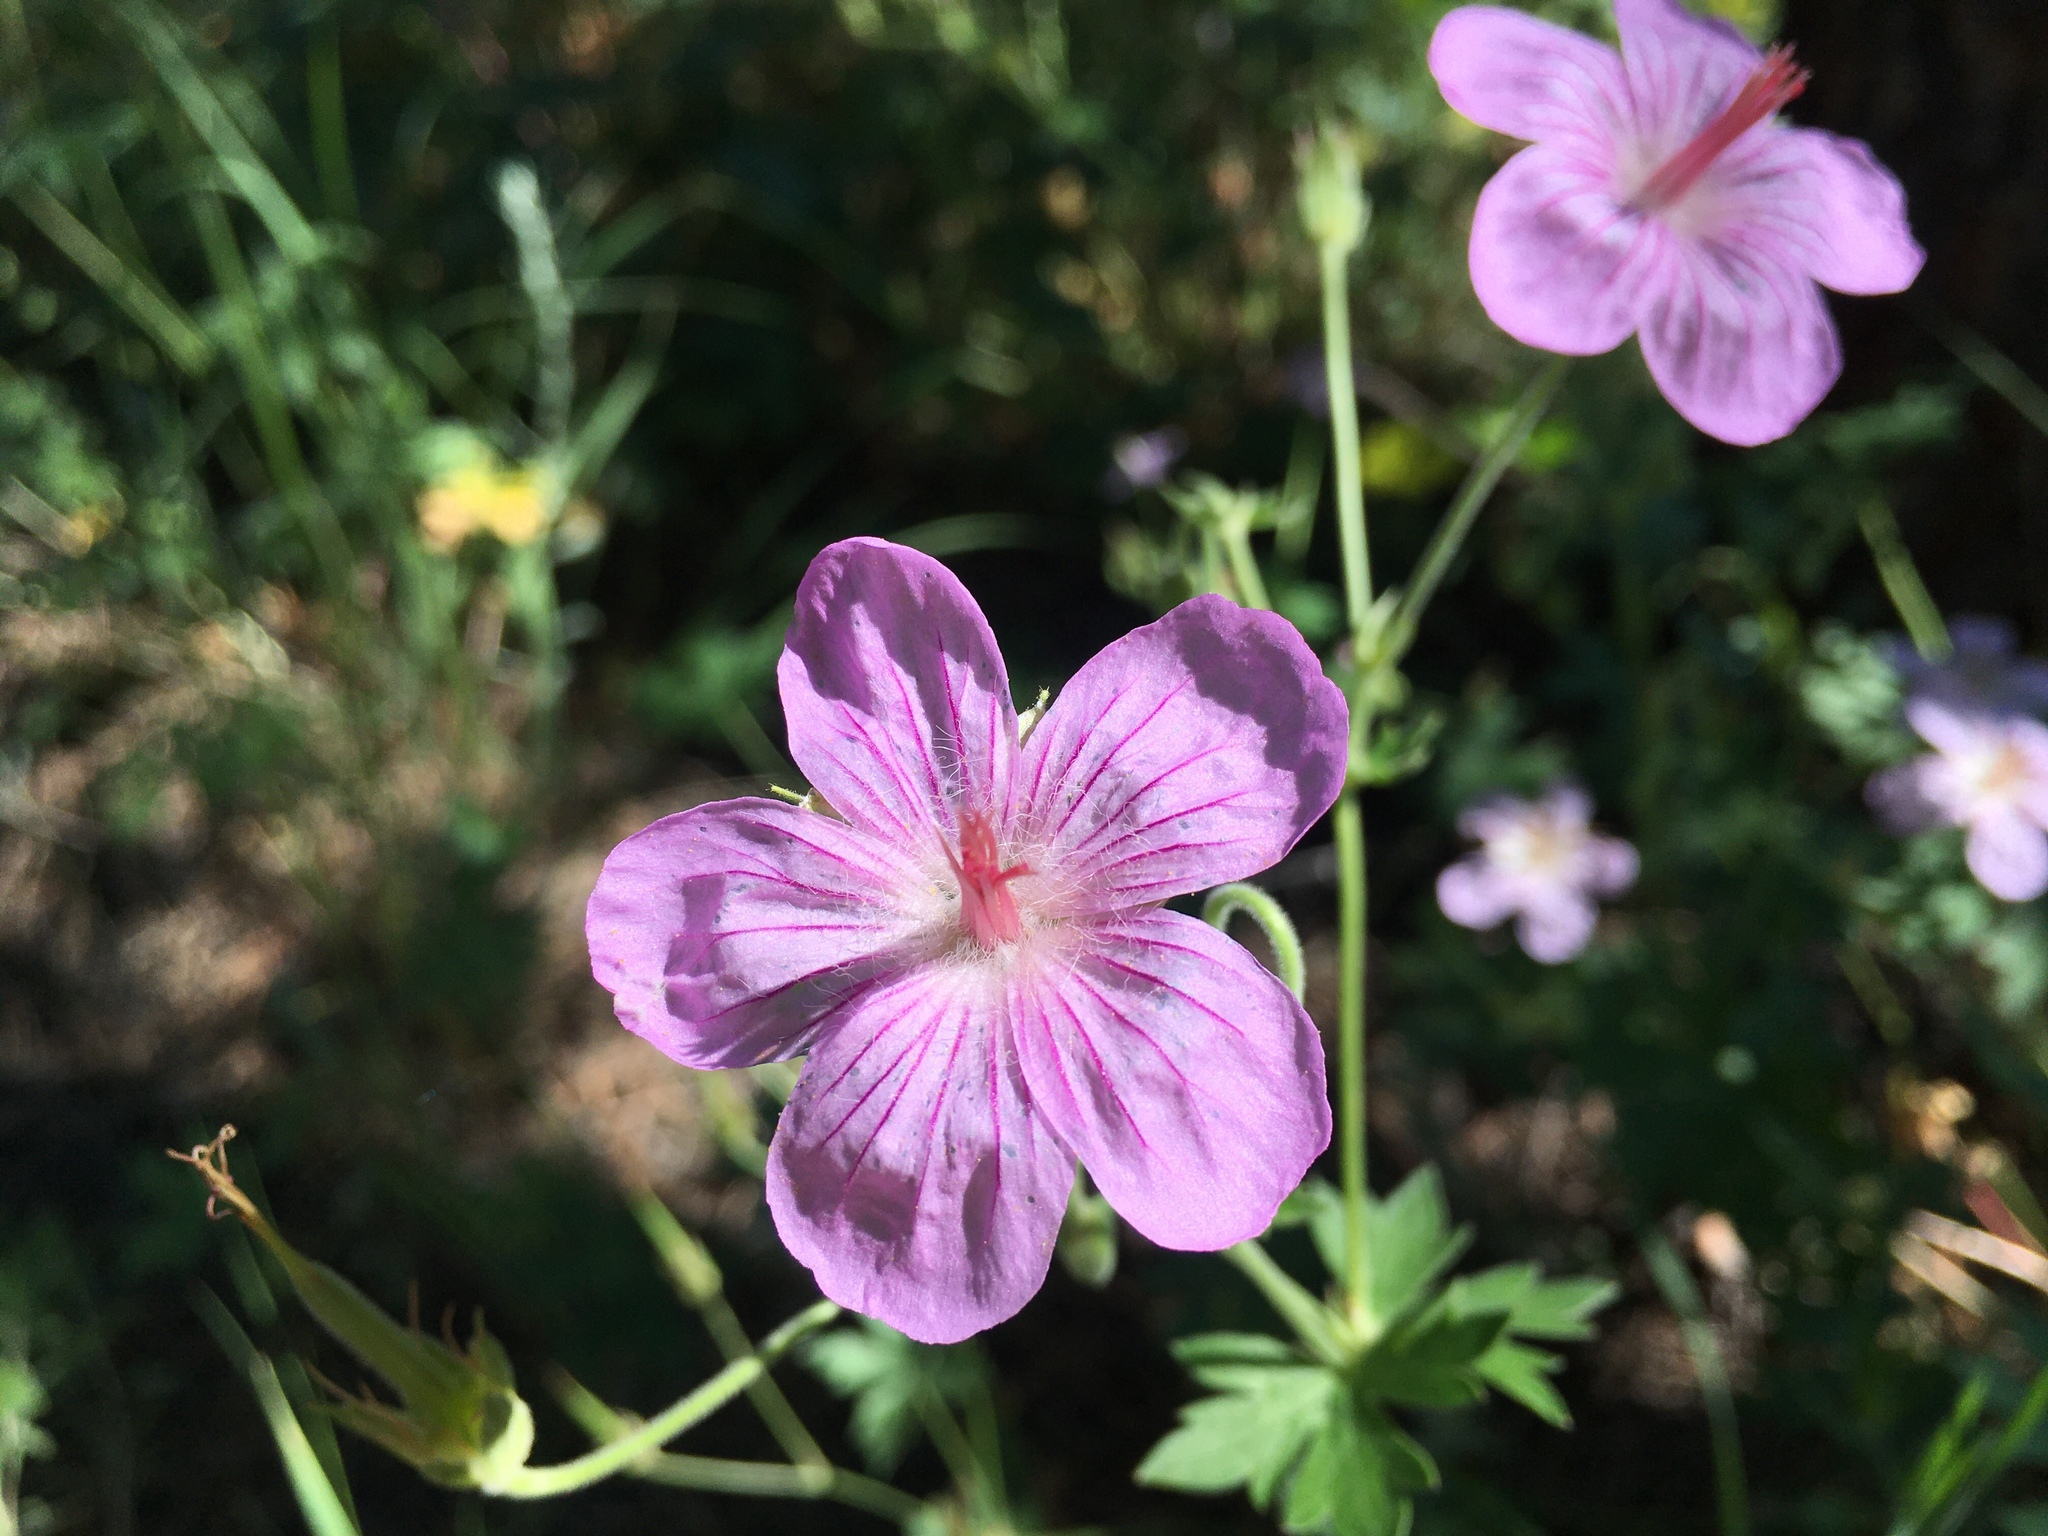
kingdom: Plantae
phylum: Tracheophyta
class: Magnoliopsida
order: Geraniales
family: Geraniaceae
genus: Geranium
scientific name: Geranium caespitosum
